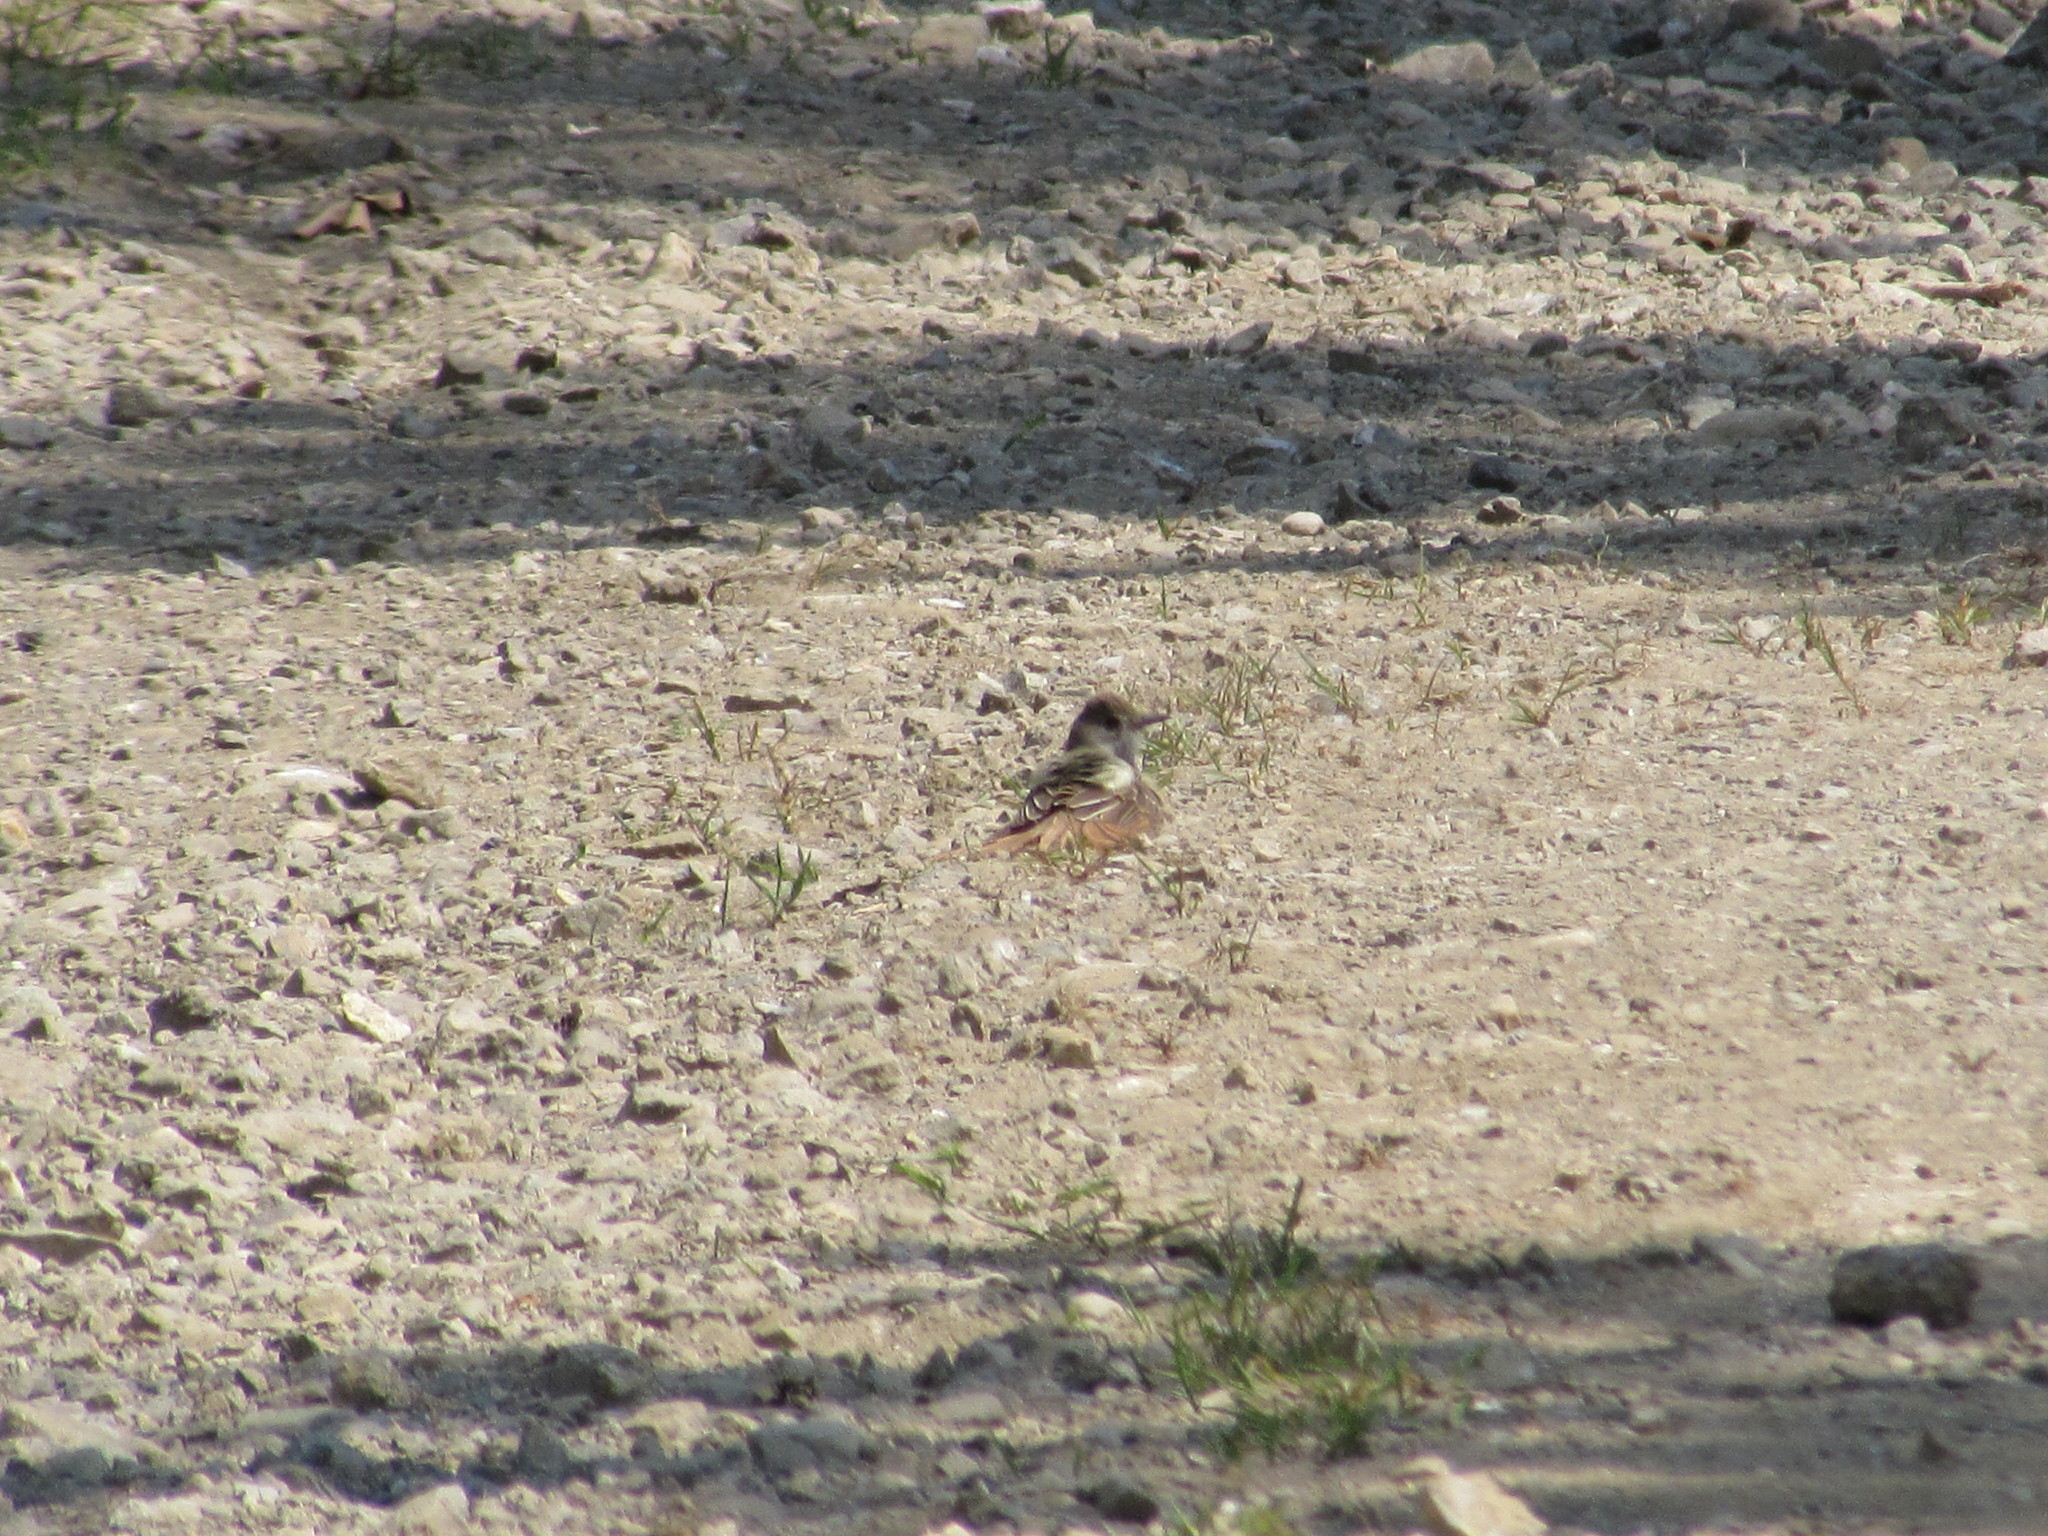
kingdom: Animalia
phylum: Chordata
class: Aves
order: Passeriformes
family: Tyrannidae
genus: Myiarchus
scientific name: Myiarchus crinitus
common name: Great crested flycatcher
